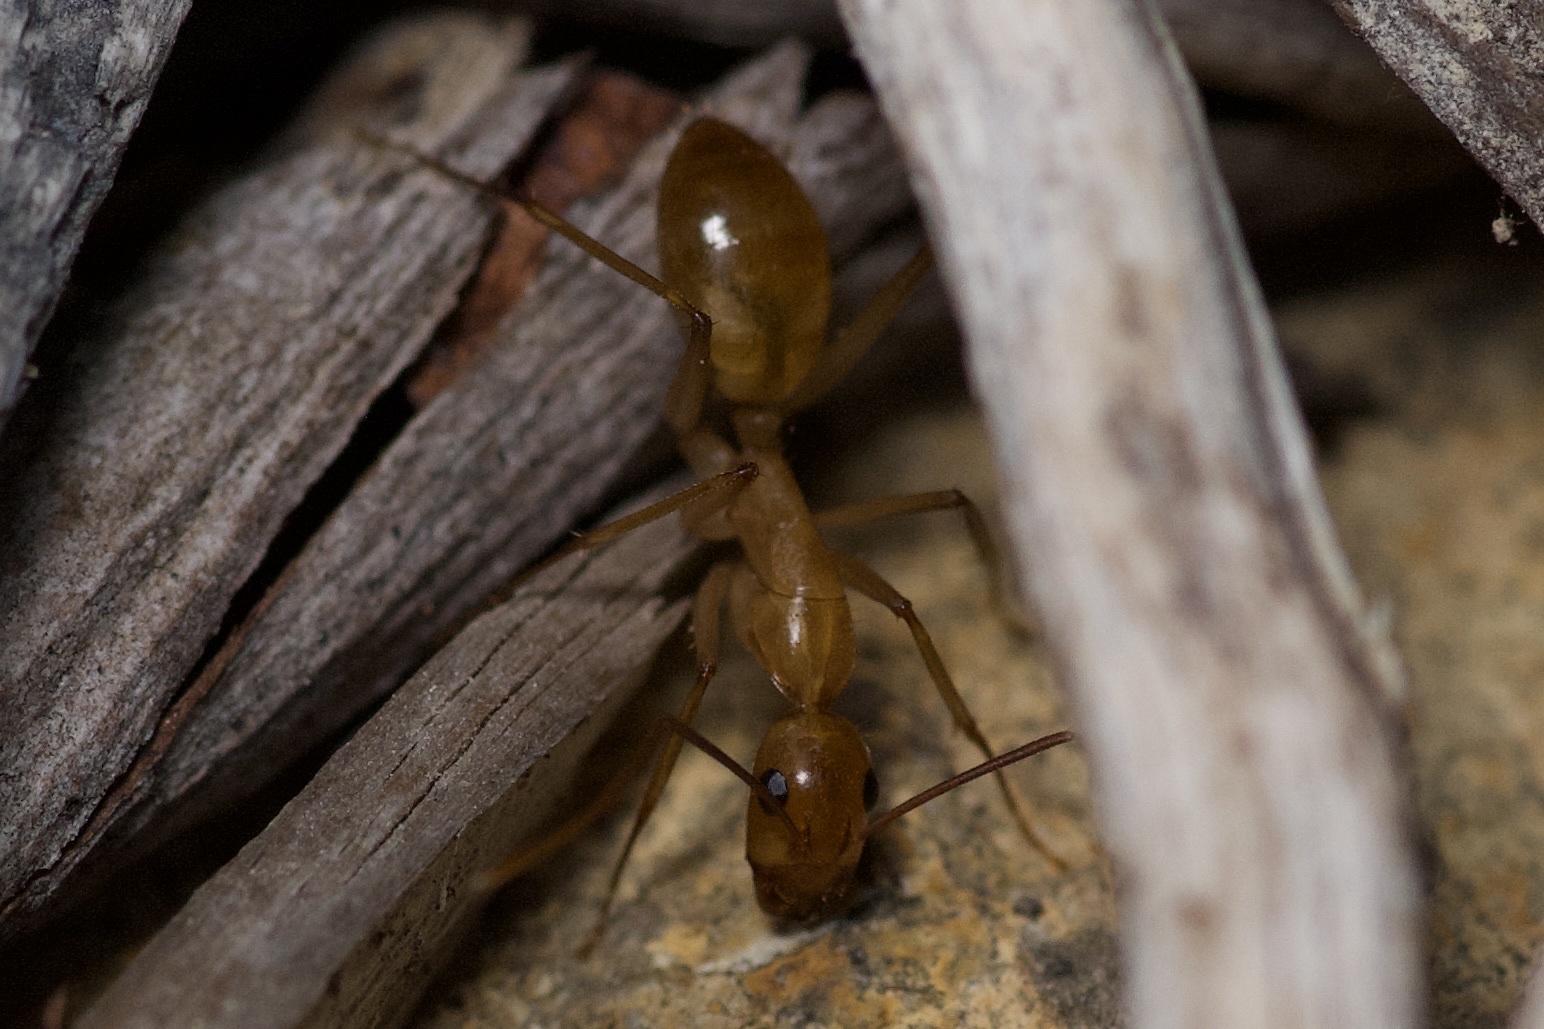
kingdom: Animalia
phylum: Arthropoda
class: Insecta
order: Hymenoptera
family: Formicidae
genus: Camponotus
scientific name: Camponotus festinatus
